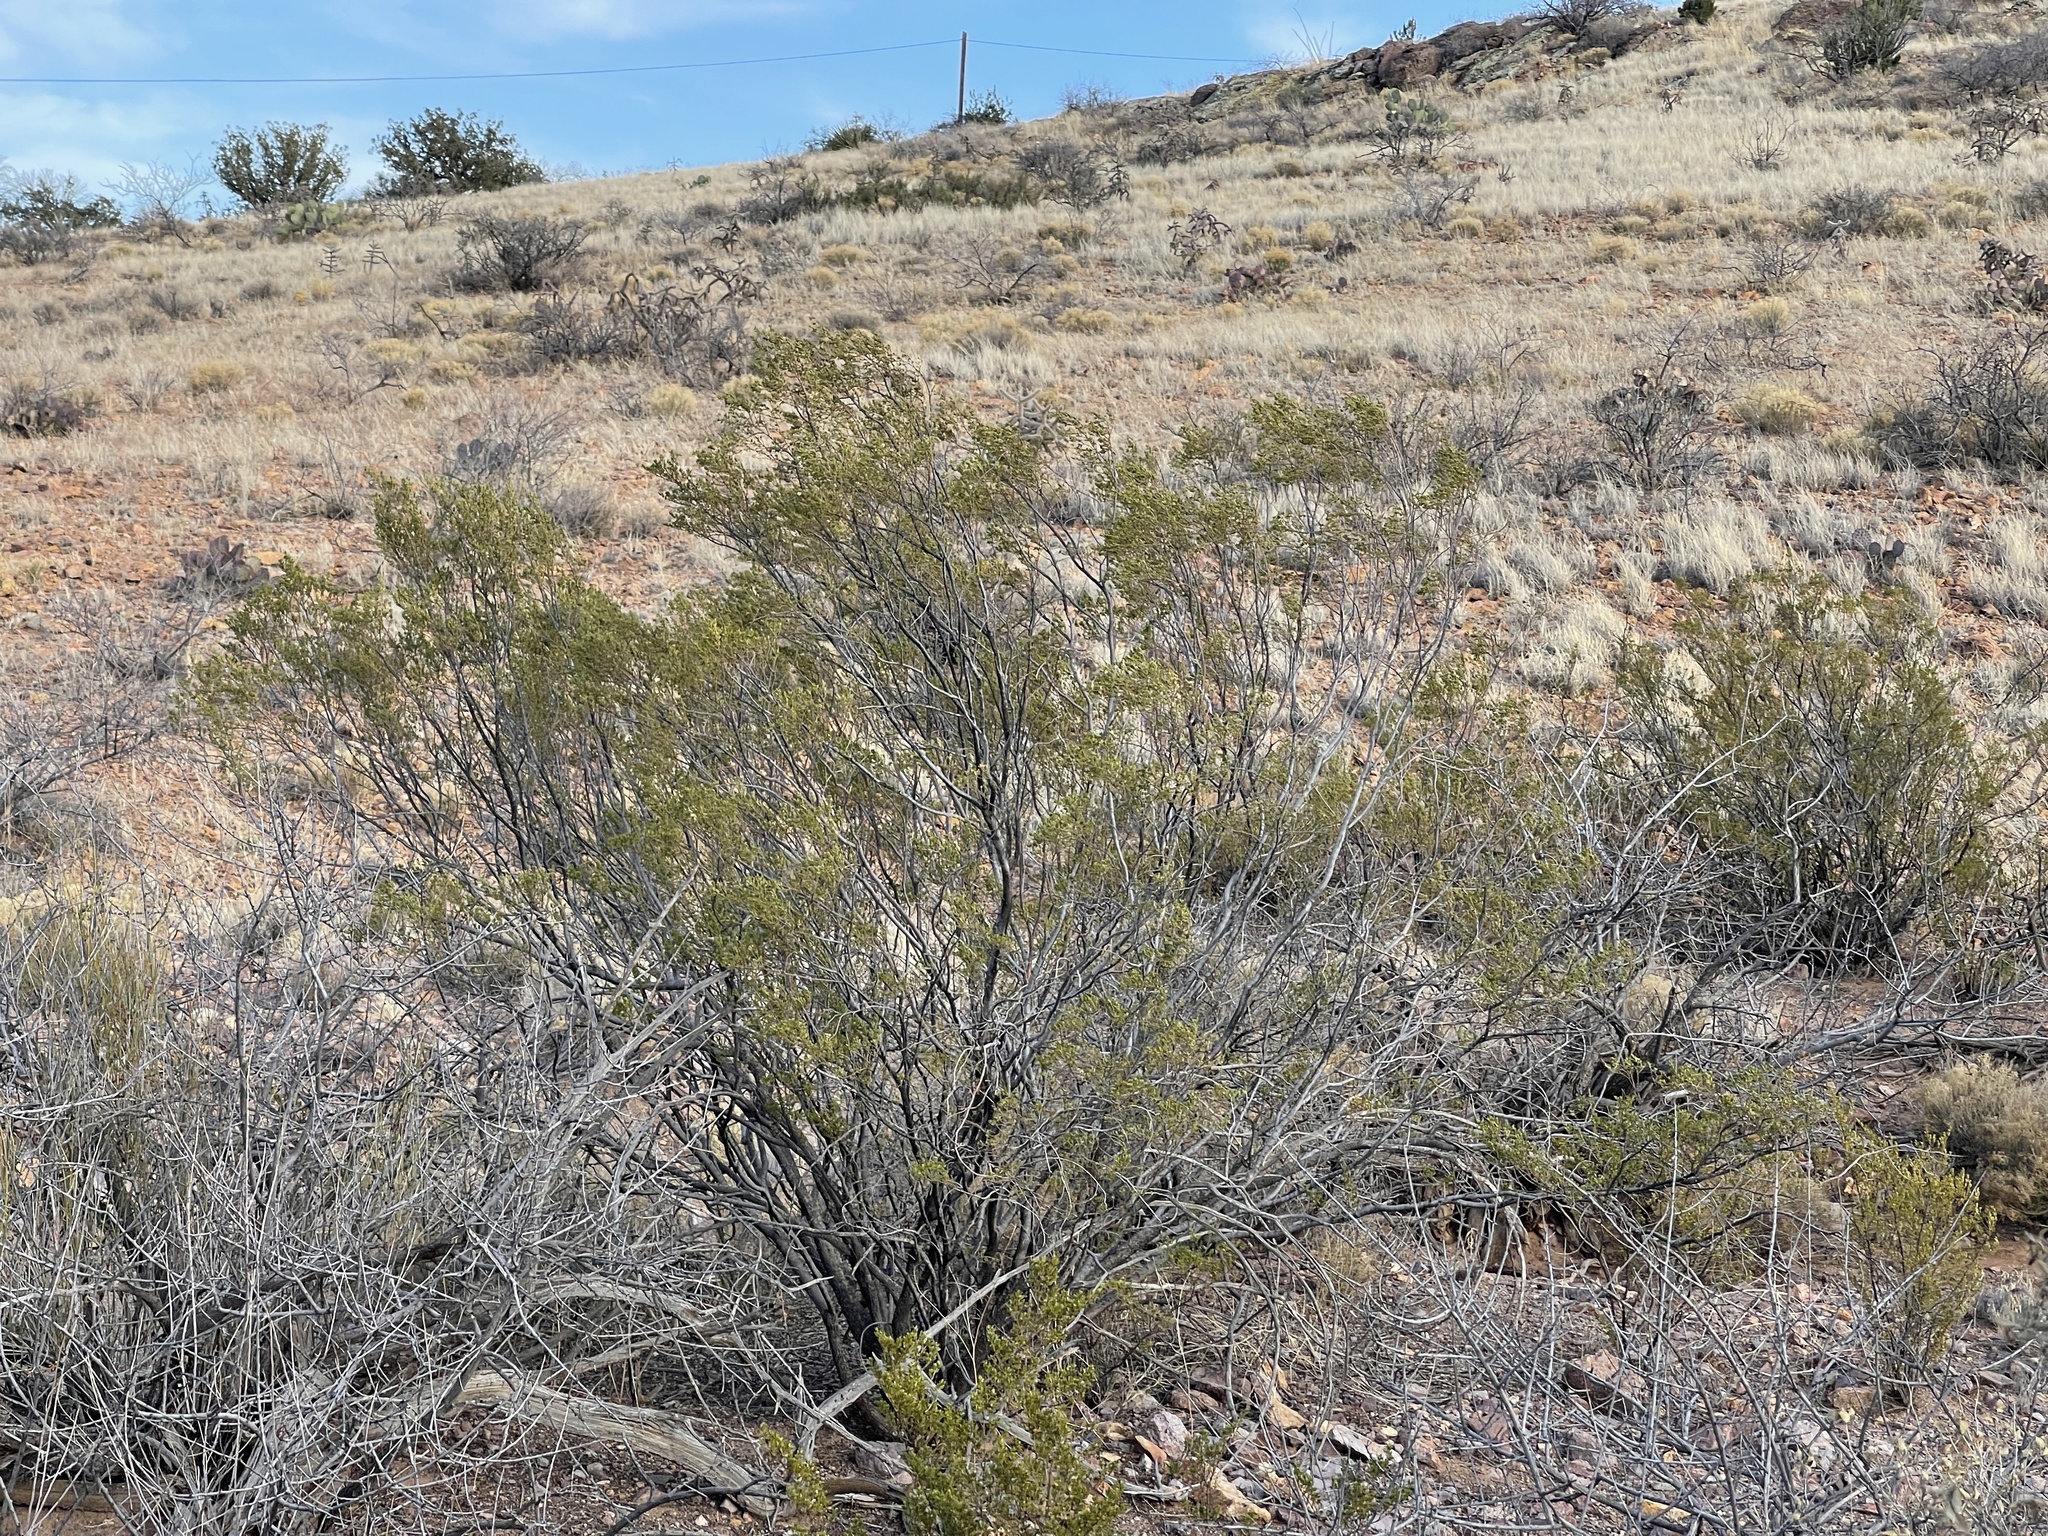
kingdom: Plantae
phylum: Tracheophyta
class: Magnoliopsida
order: Zygophyllales
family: Zygophyllaceae
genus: Larrea
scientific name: Larrea tridentata
